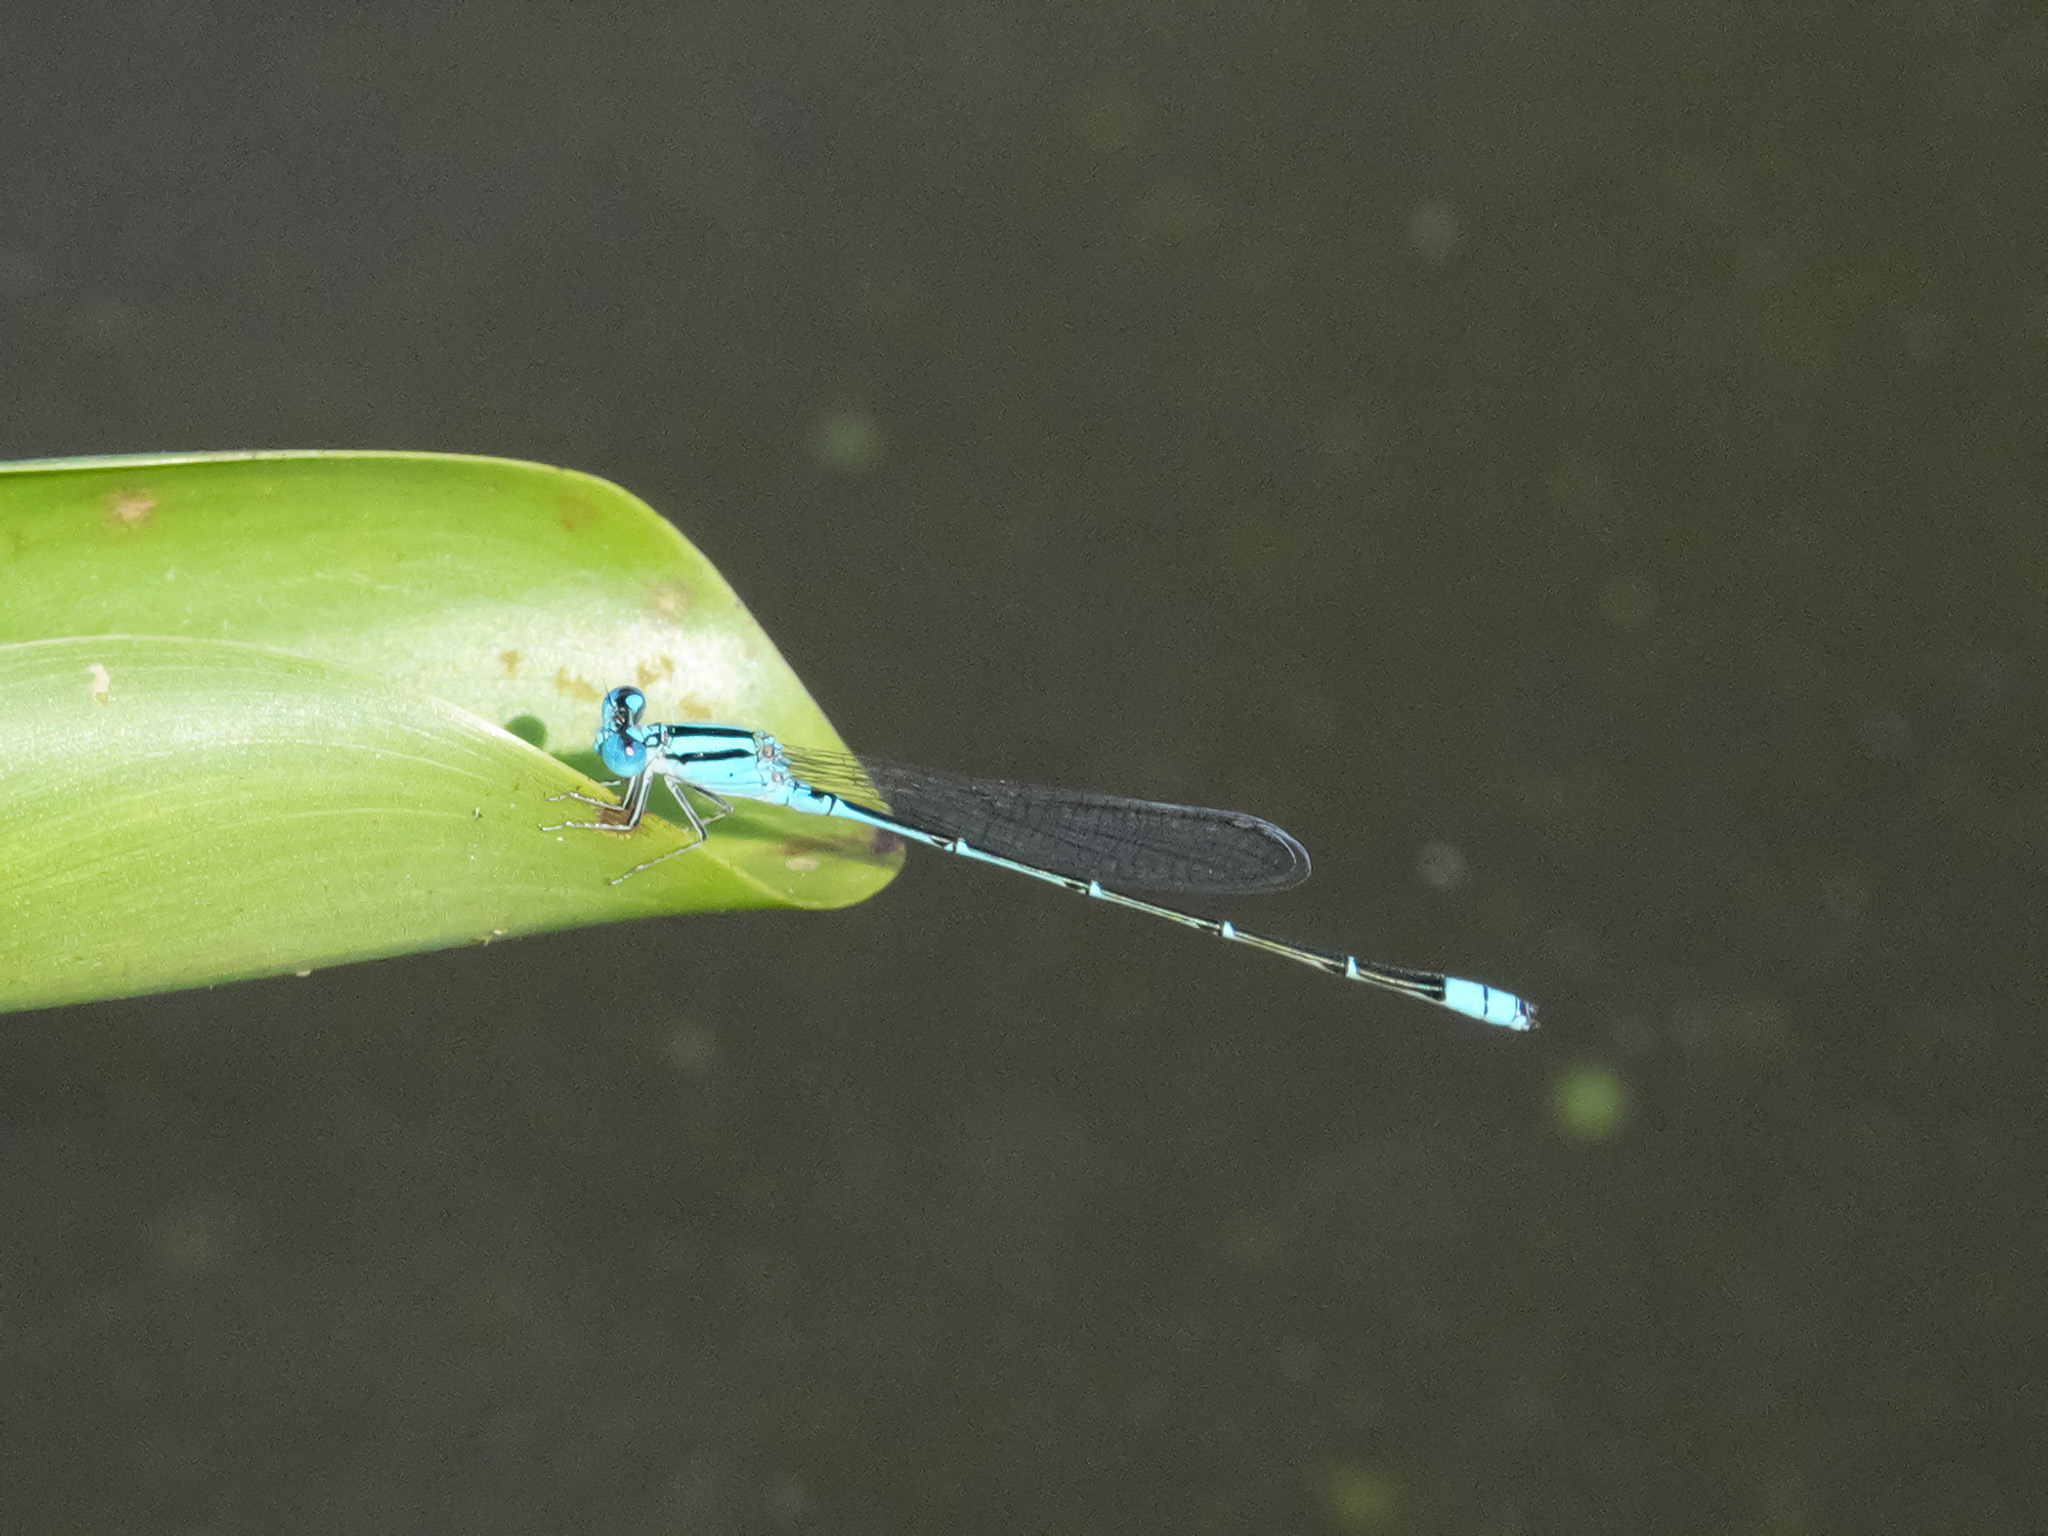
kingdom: Animalia
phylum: Arthropoda
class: Insecta
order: Odonata
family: Coenagrionidae
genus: Pseudagrion
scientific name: Pseudagrion microcephalum
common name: Blue riverdamsel
